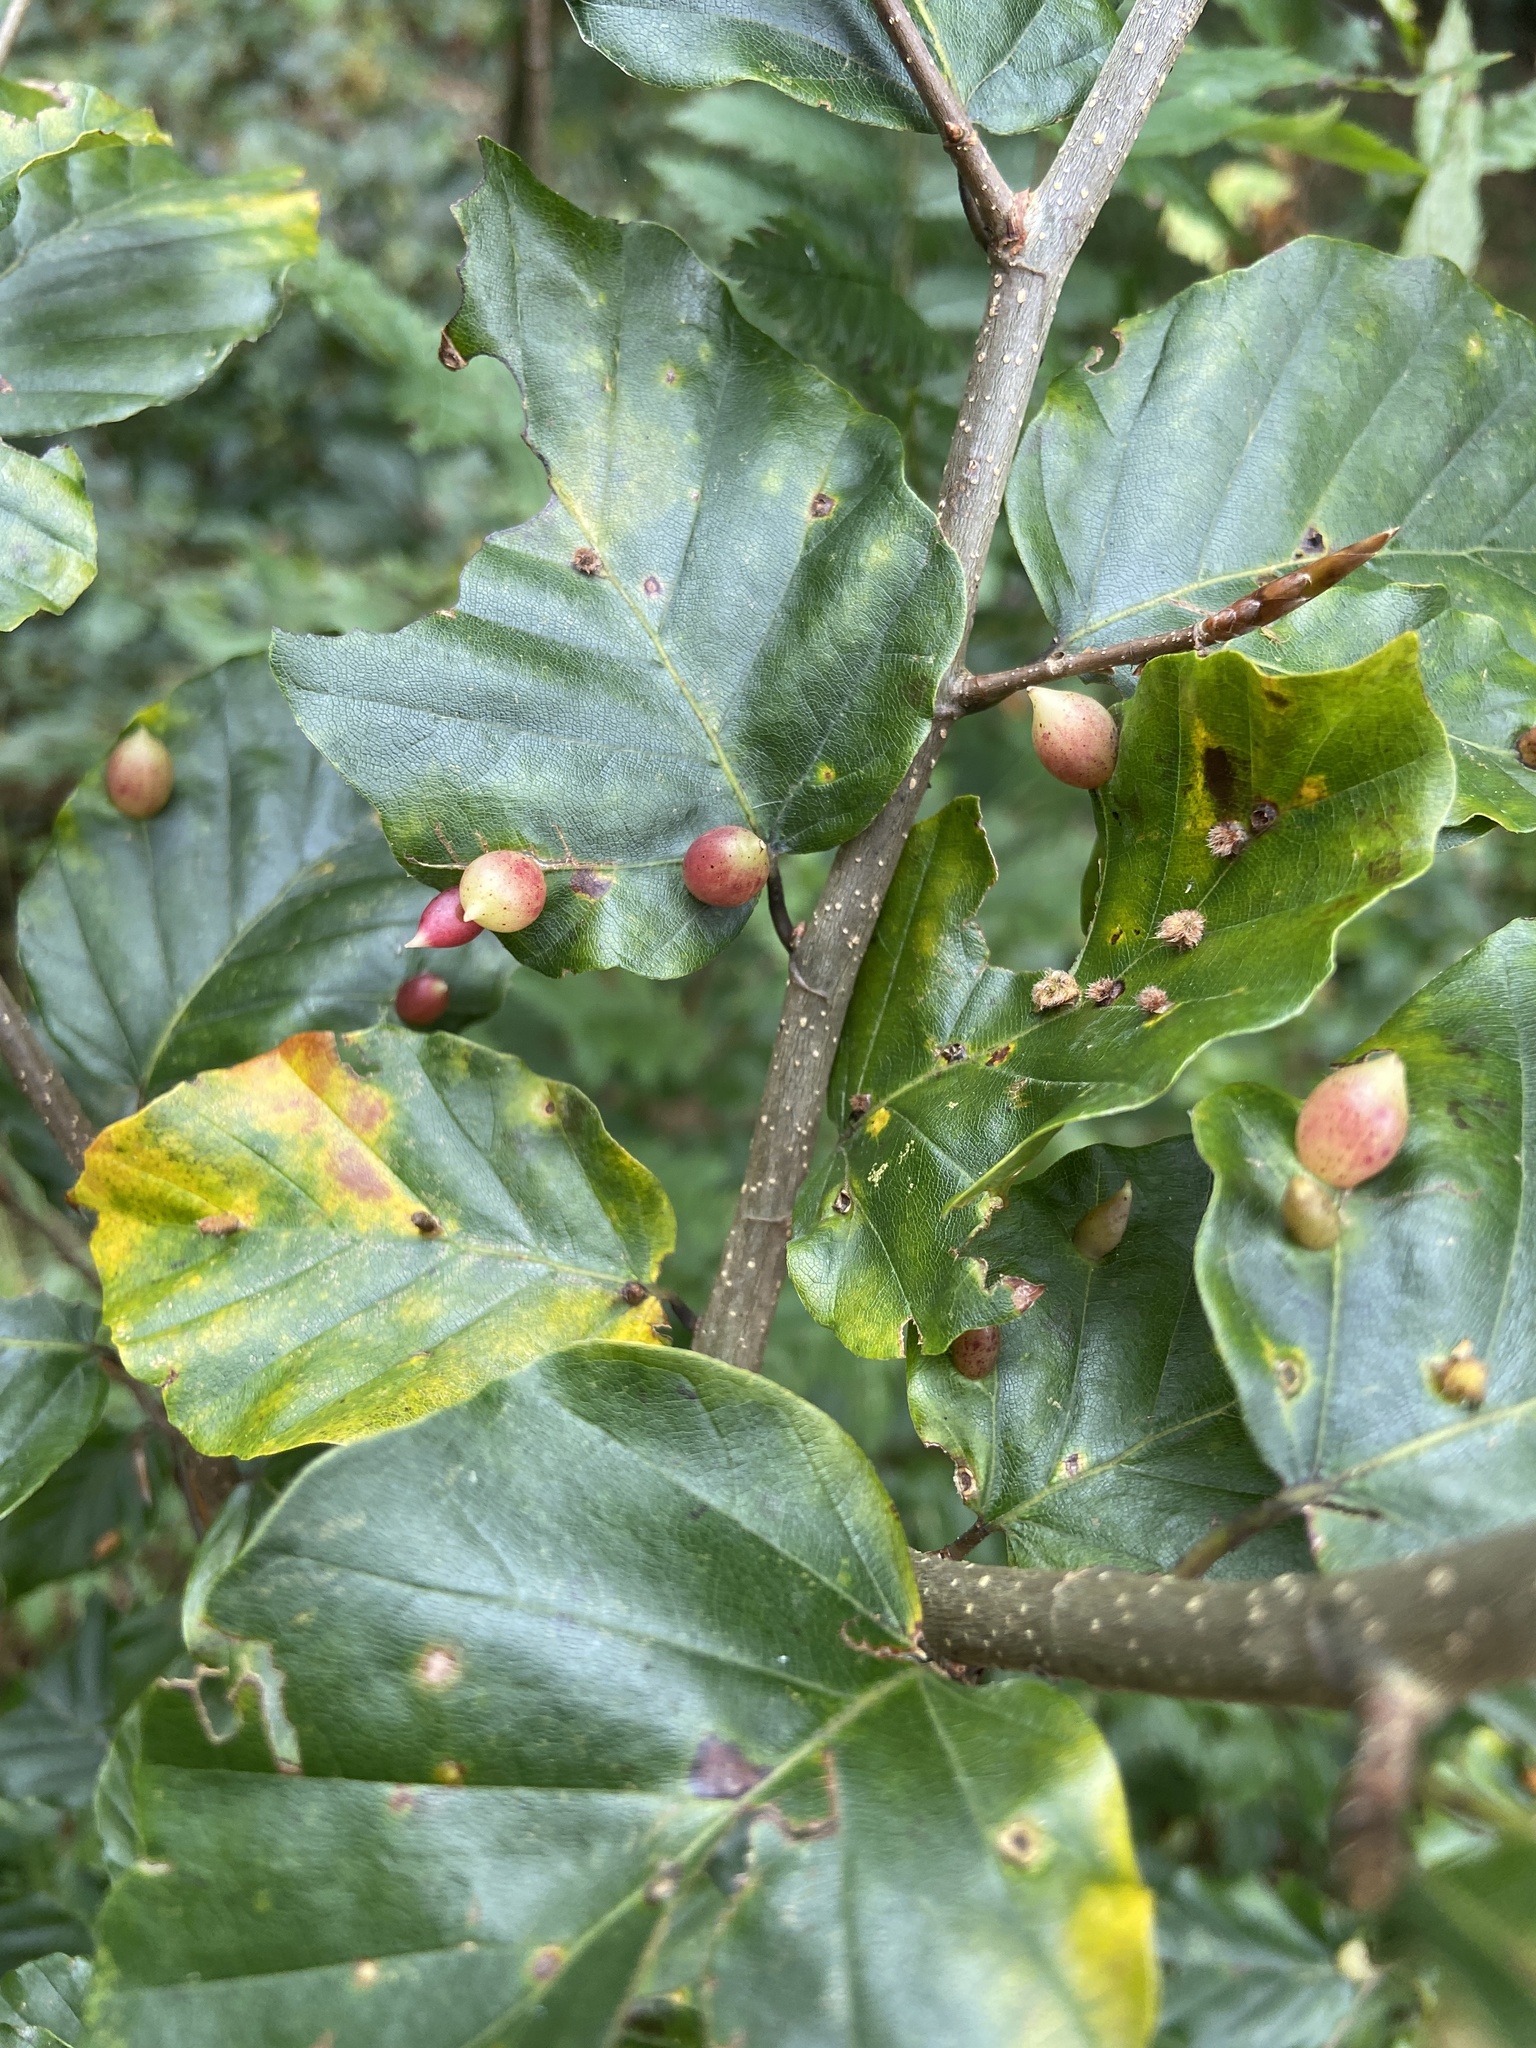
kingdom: Animalia
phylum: Arthropoda
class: Insecta
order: Diptera
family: Cecidomyiidae
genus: Mikiola
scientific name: Mikiola fagi
